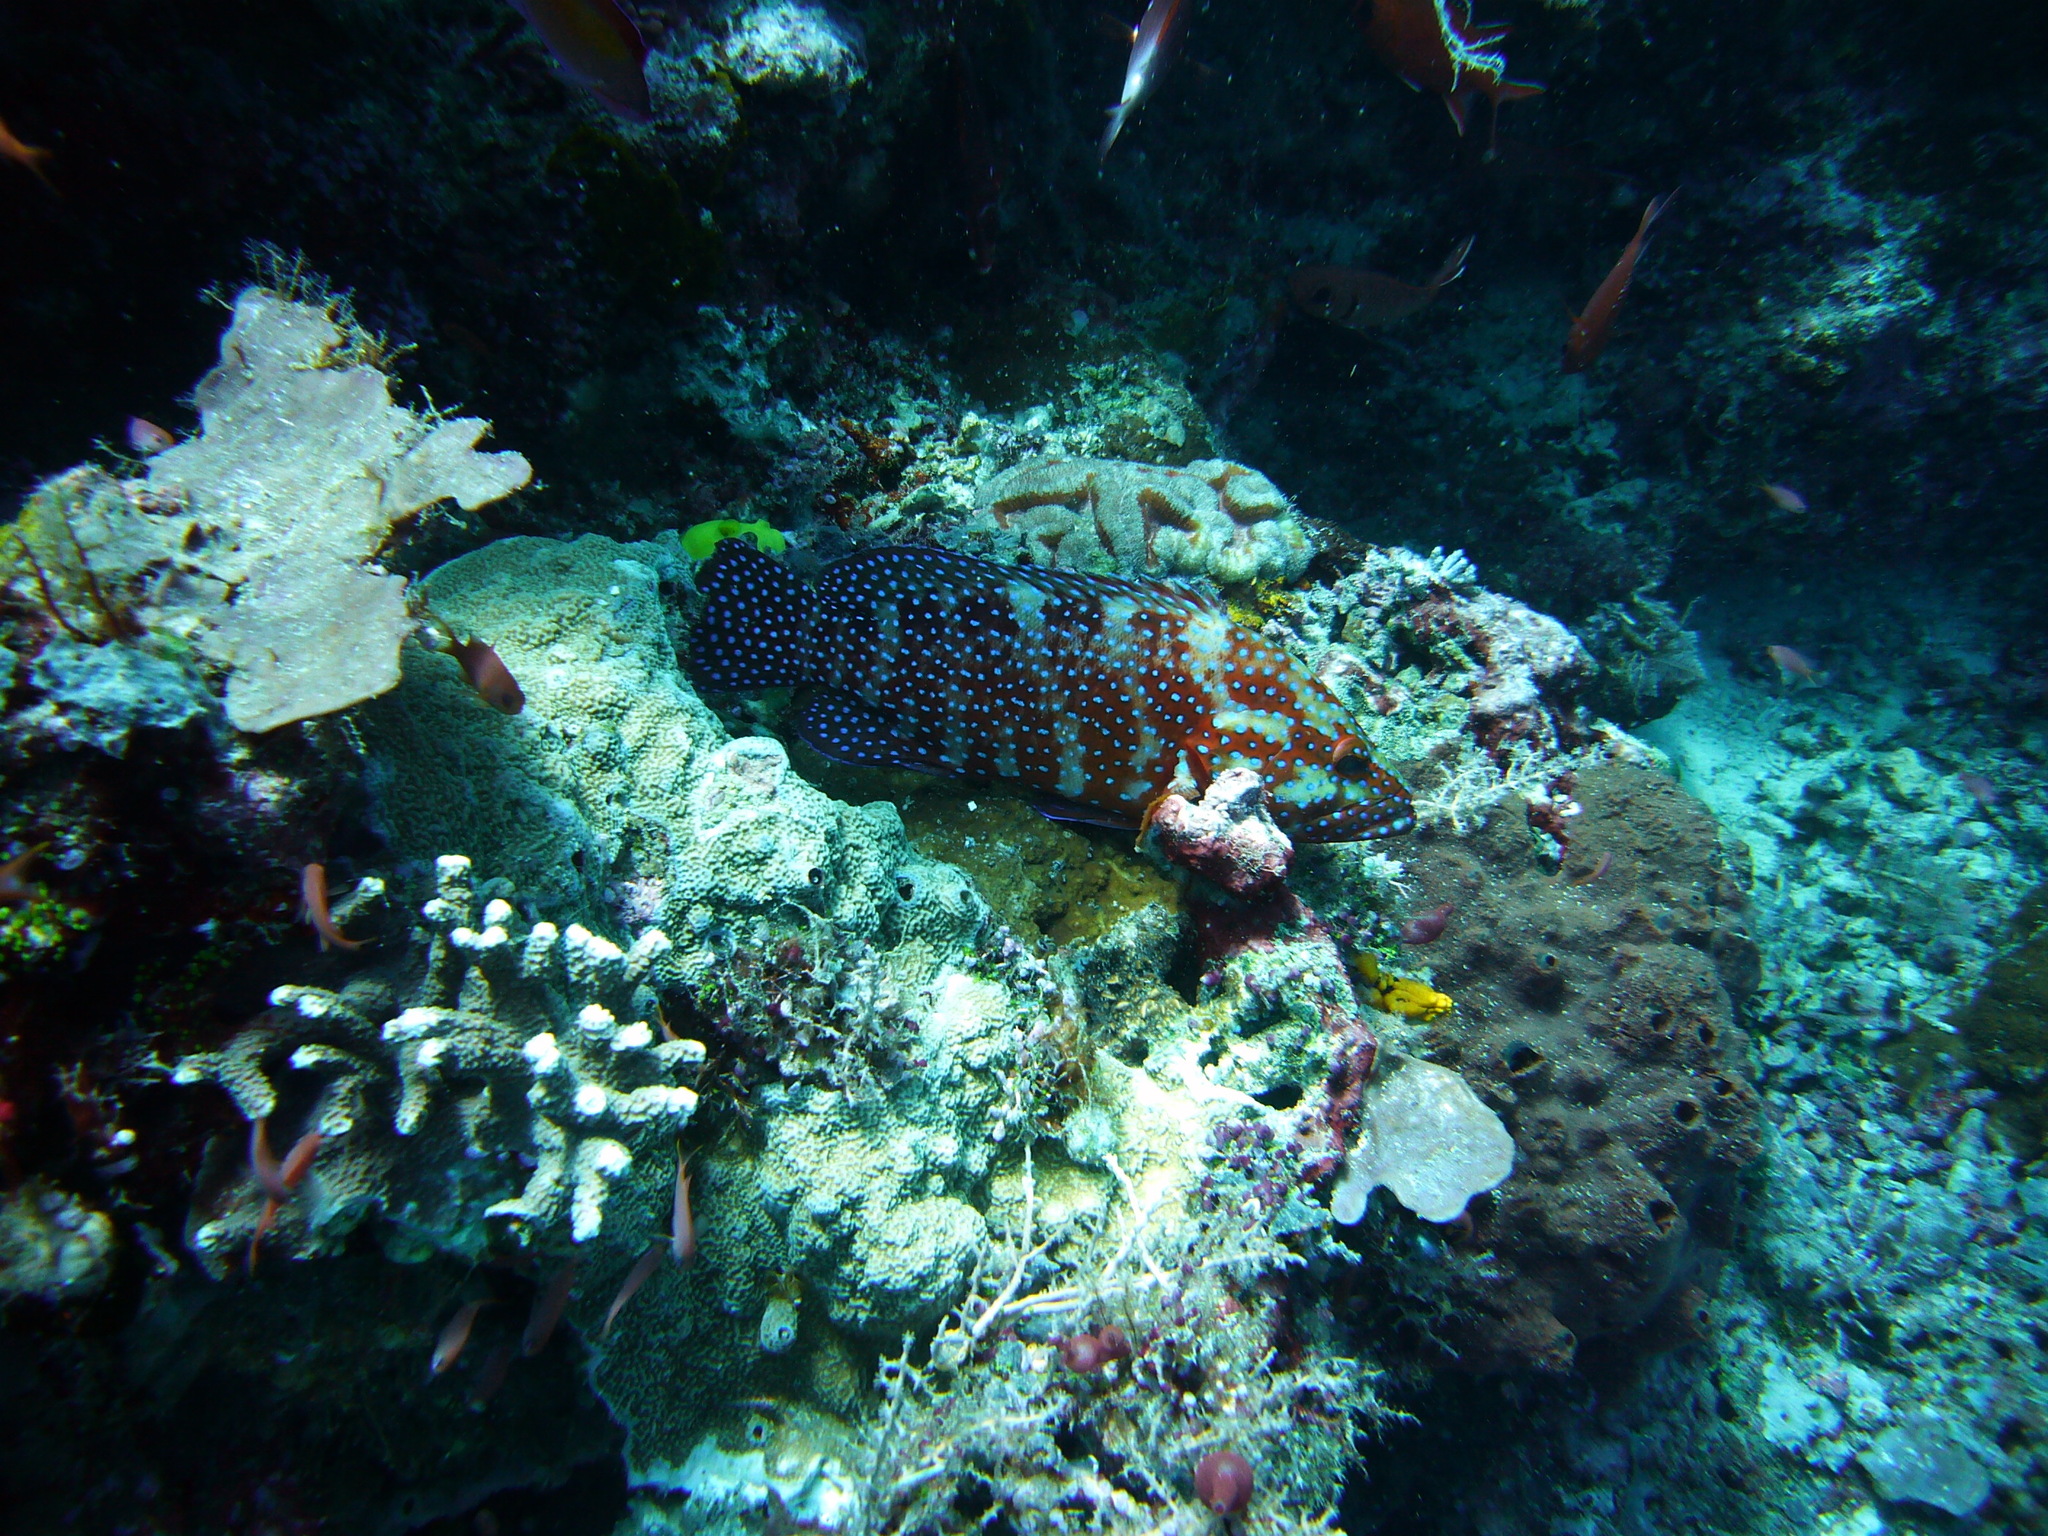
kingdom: Animalia
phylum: Chordata
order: Perciformes
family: Serranidae
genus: Cephalopholis
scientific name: Cephalopholis miniata
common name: Coral hind
